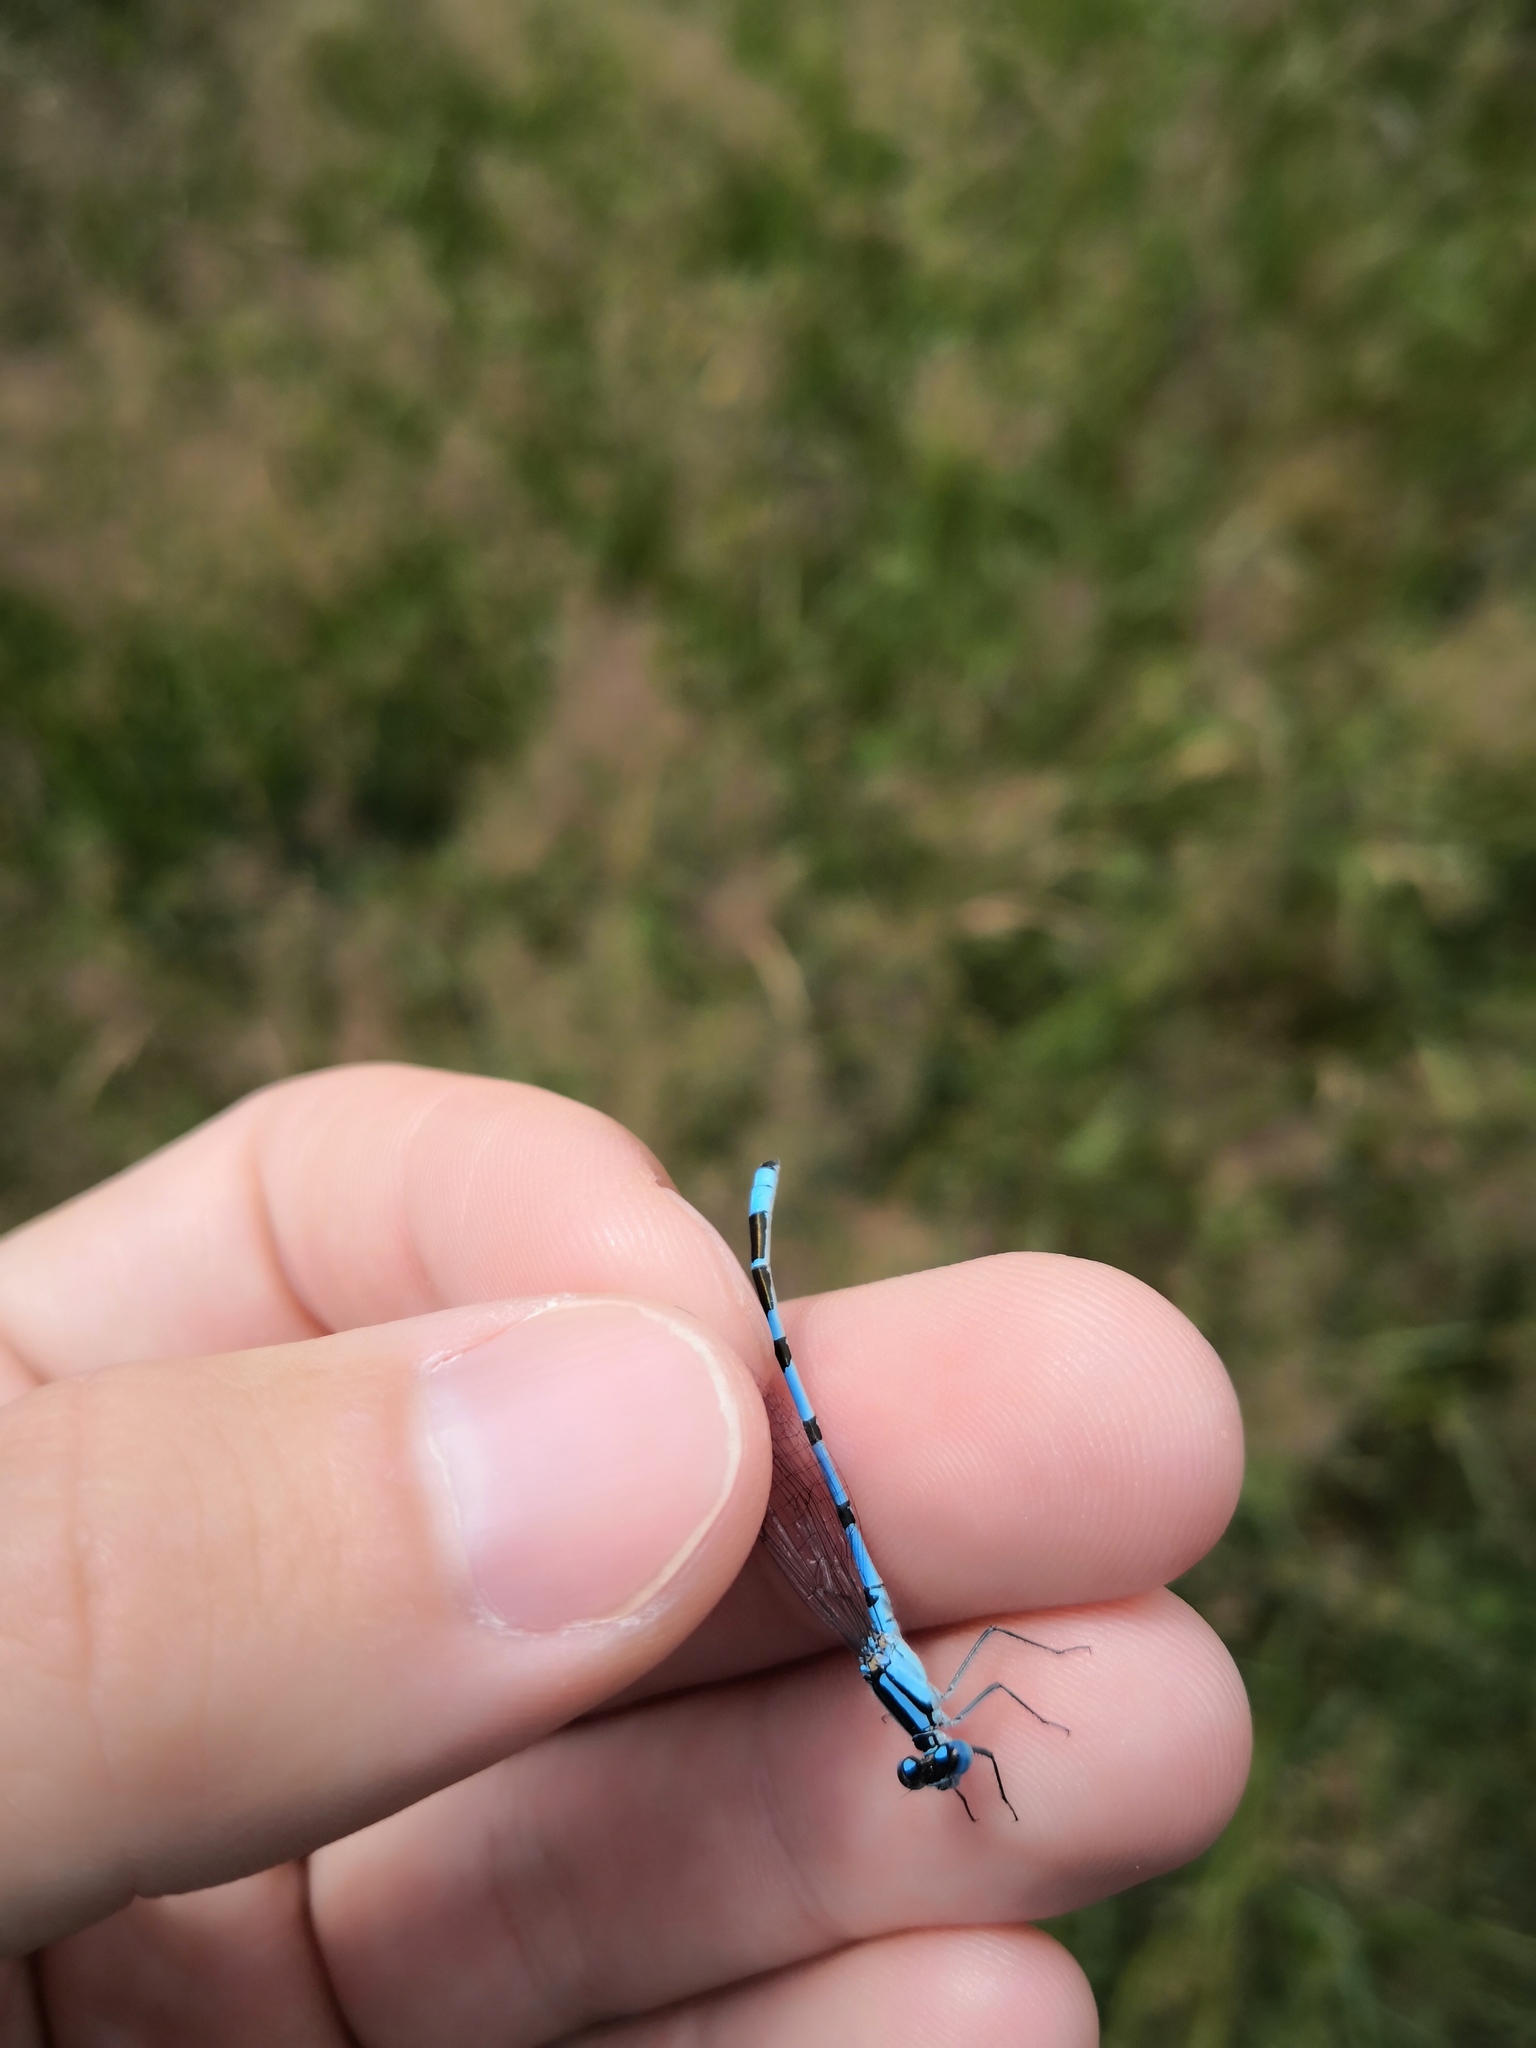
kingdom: Animalia
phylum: Arthropoda
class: Insecta
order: Odonata
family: Coenagrionidae
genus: Enallagma
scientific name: Enallagma cyathigerum
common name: Common blue damselfly
